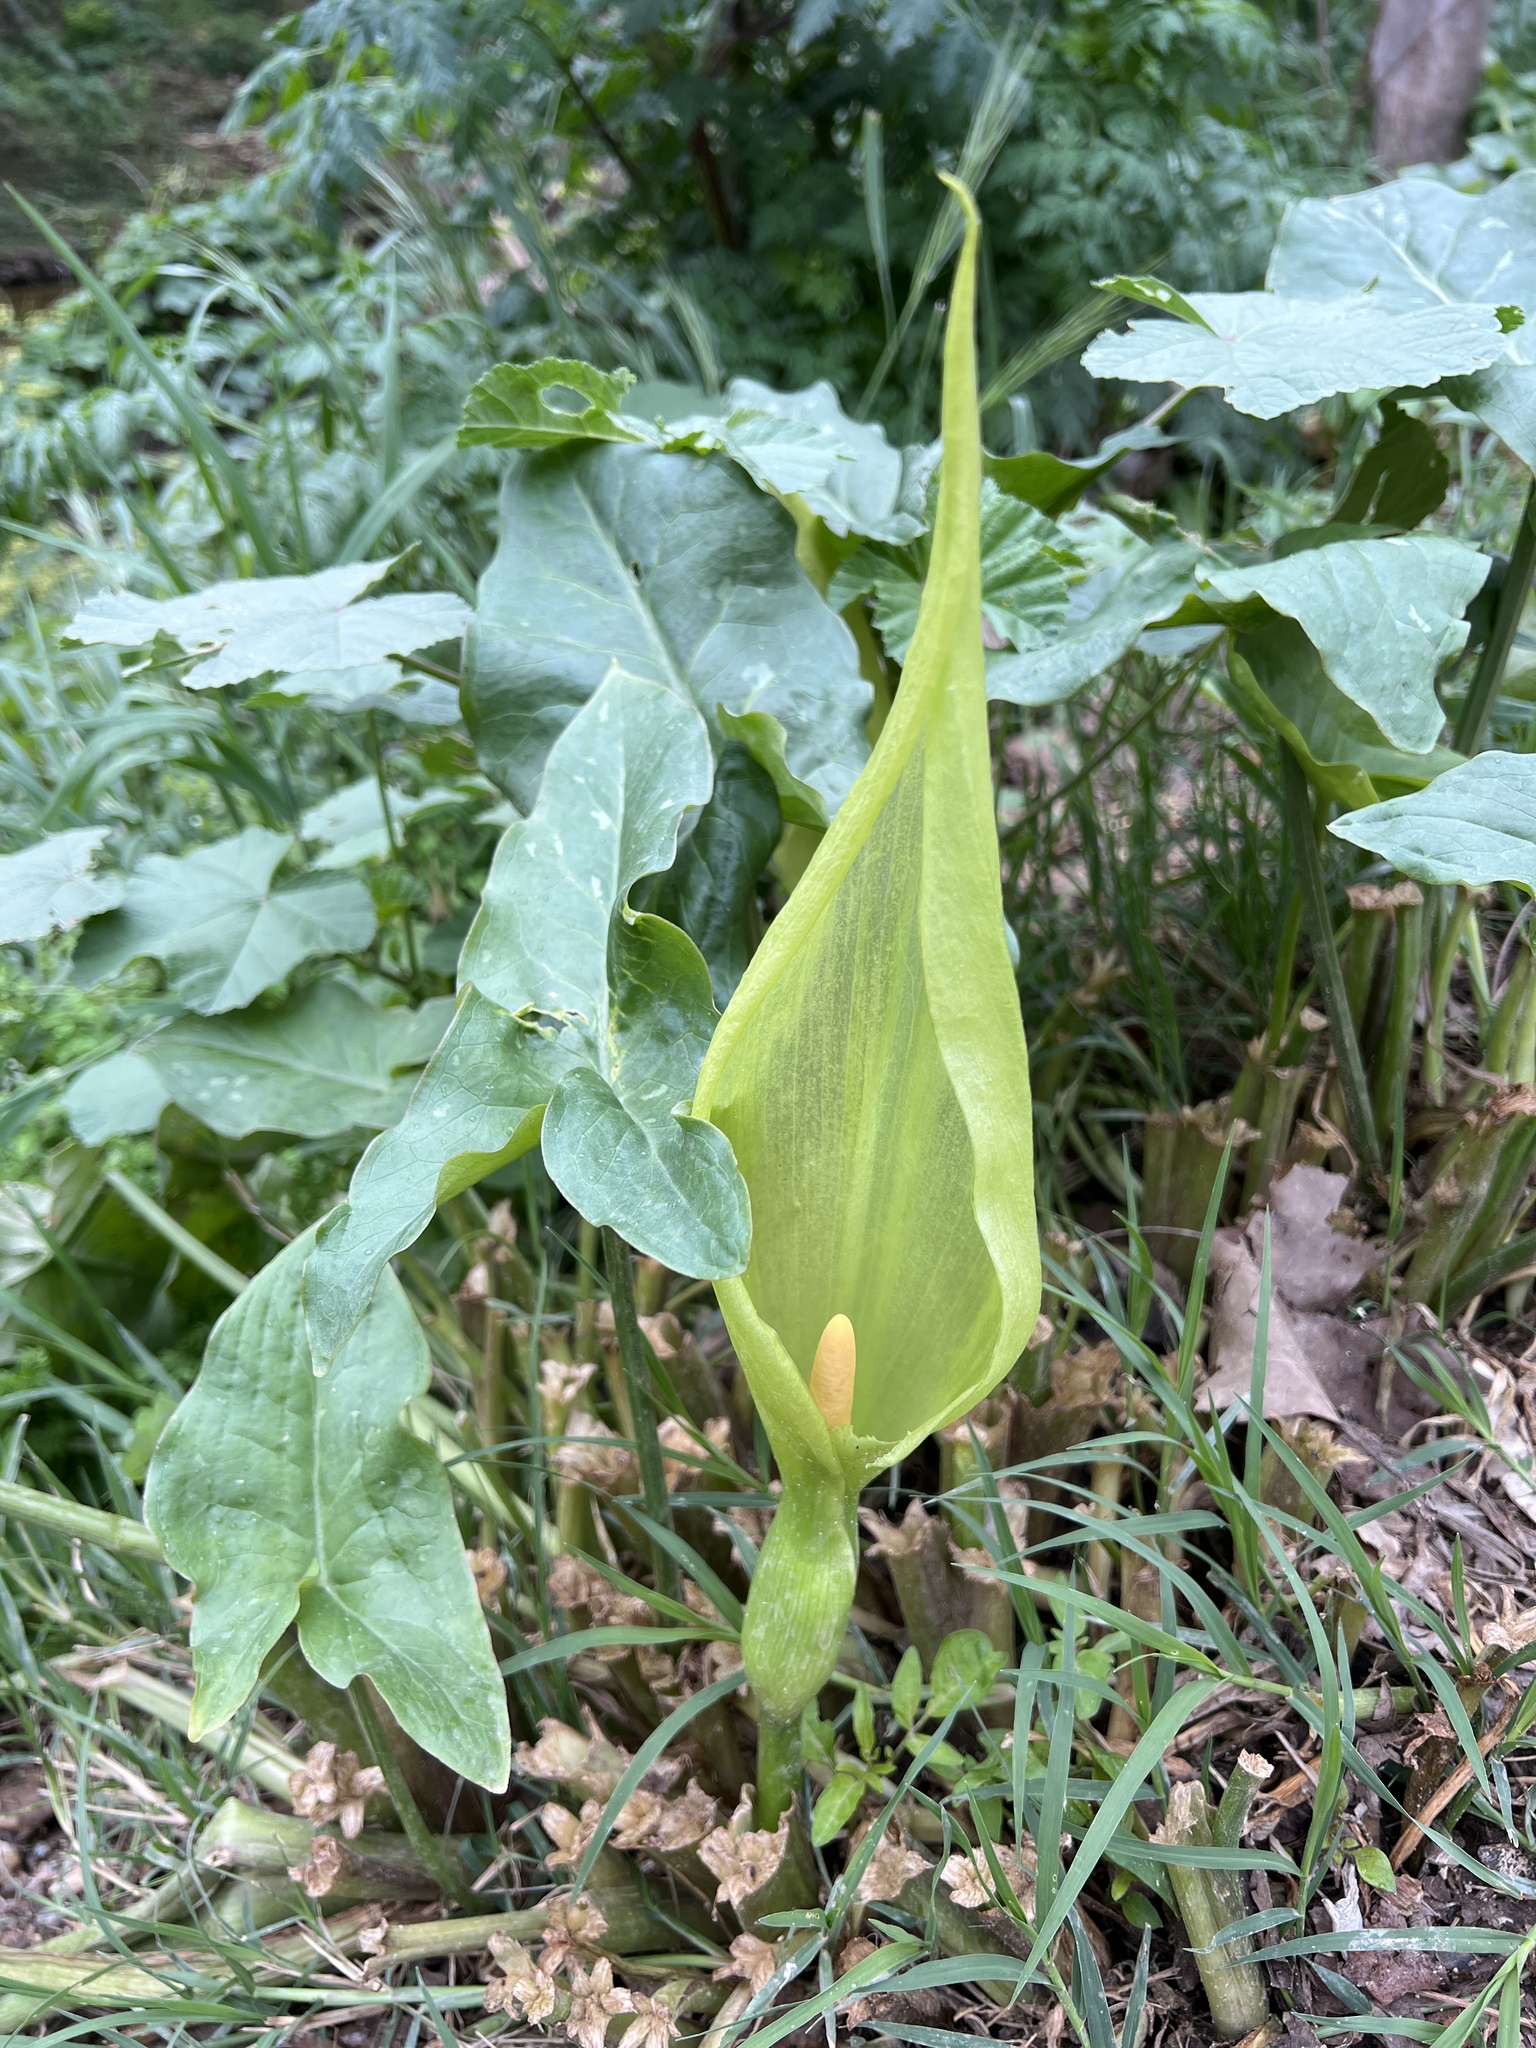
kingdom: Plantae
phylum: Tracheophyta
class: Liliopsida
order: Alismatales
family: Araceae
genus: Arum
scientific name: Arum italicum
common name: Italian lords-and-ladies
